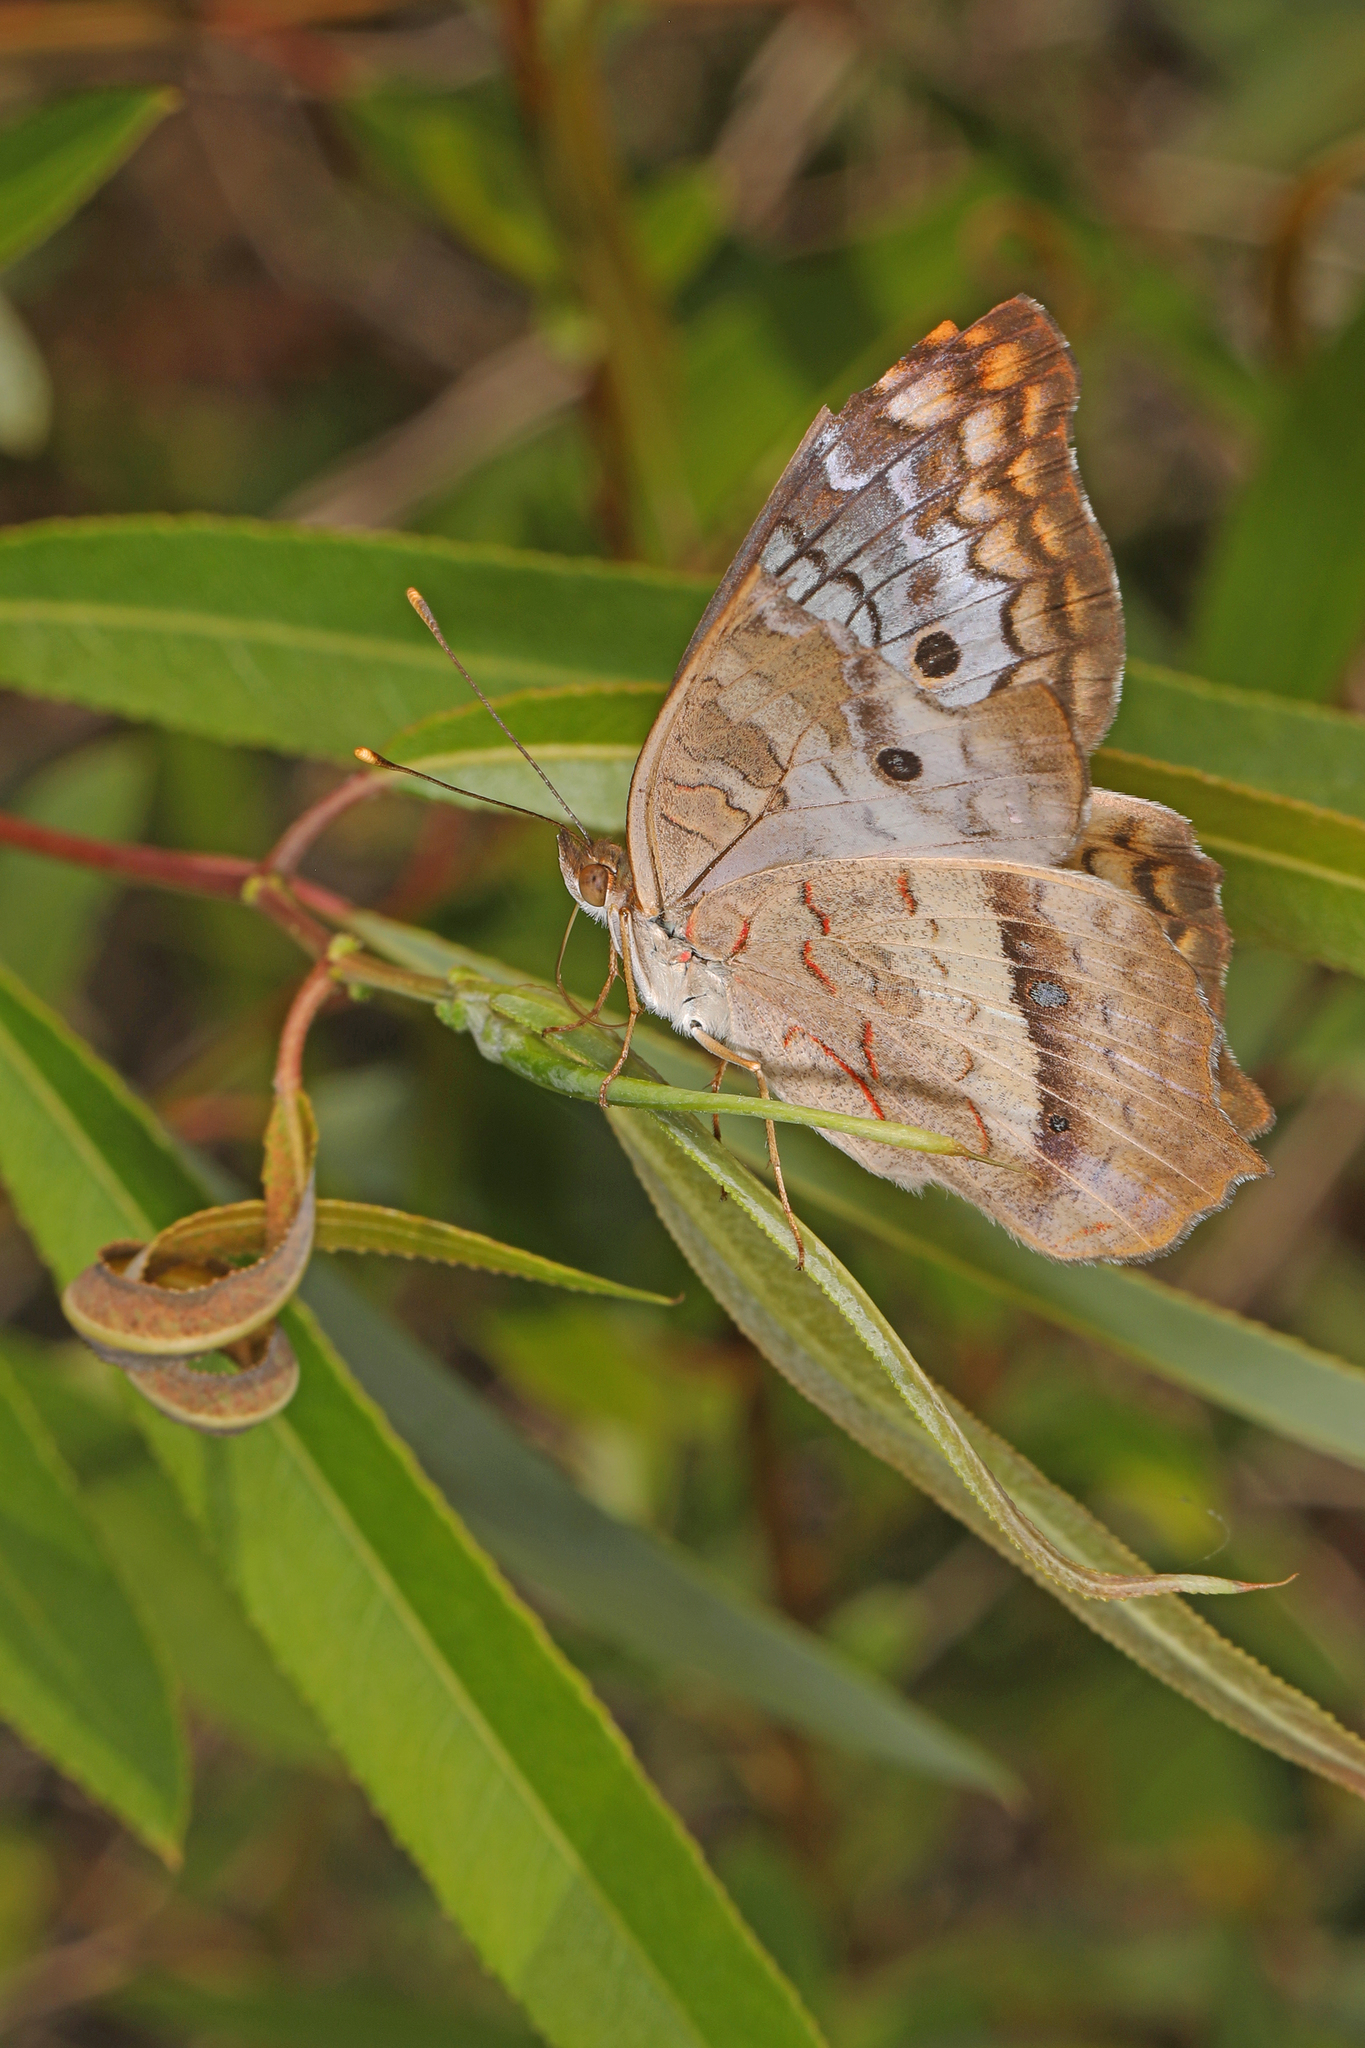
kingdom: Animalia
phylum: Arthropoda
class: Insecta
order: Lepidoptera
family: Nymphalidae
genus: Anartia
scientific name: Anartia jatrophae
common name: White peacock
